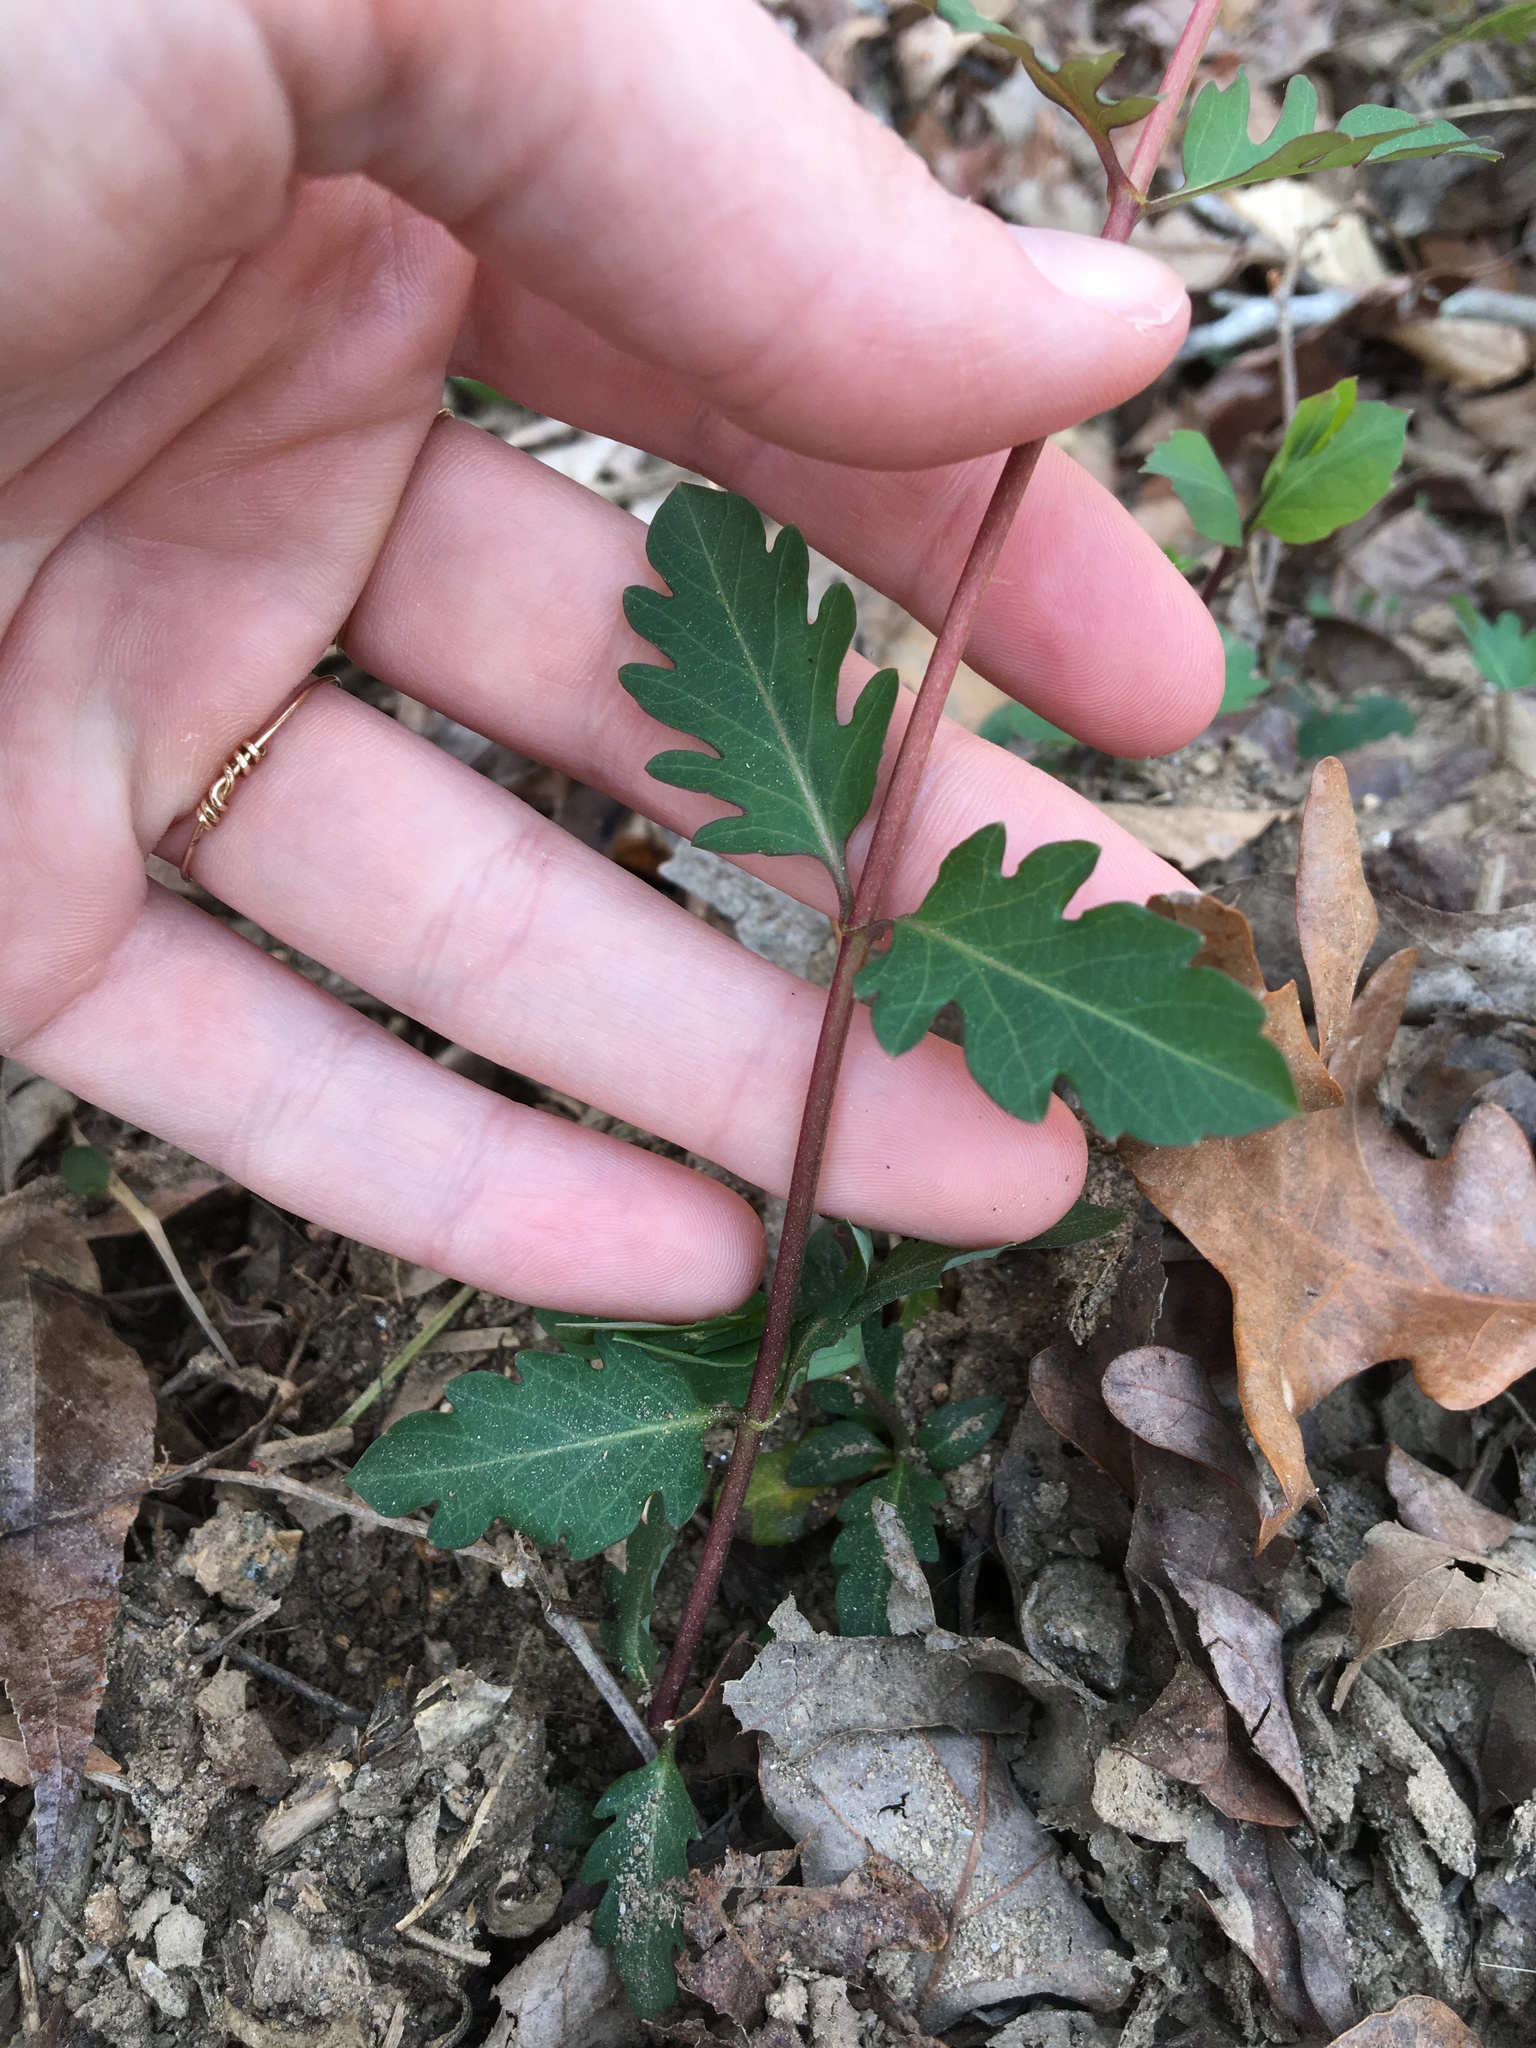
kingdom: Plantae
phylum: Tracheophyta
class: Magnoliopsida
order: Dipsacales
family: Caprifoliaceae
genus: Lonicera
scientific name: Lonicera japonica
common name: Japanese honeysuckle
